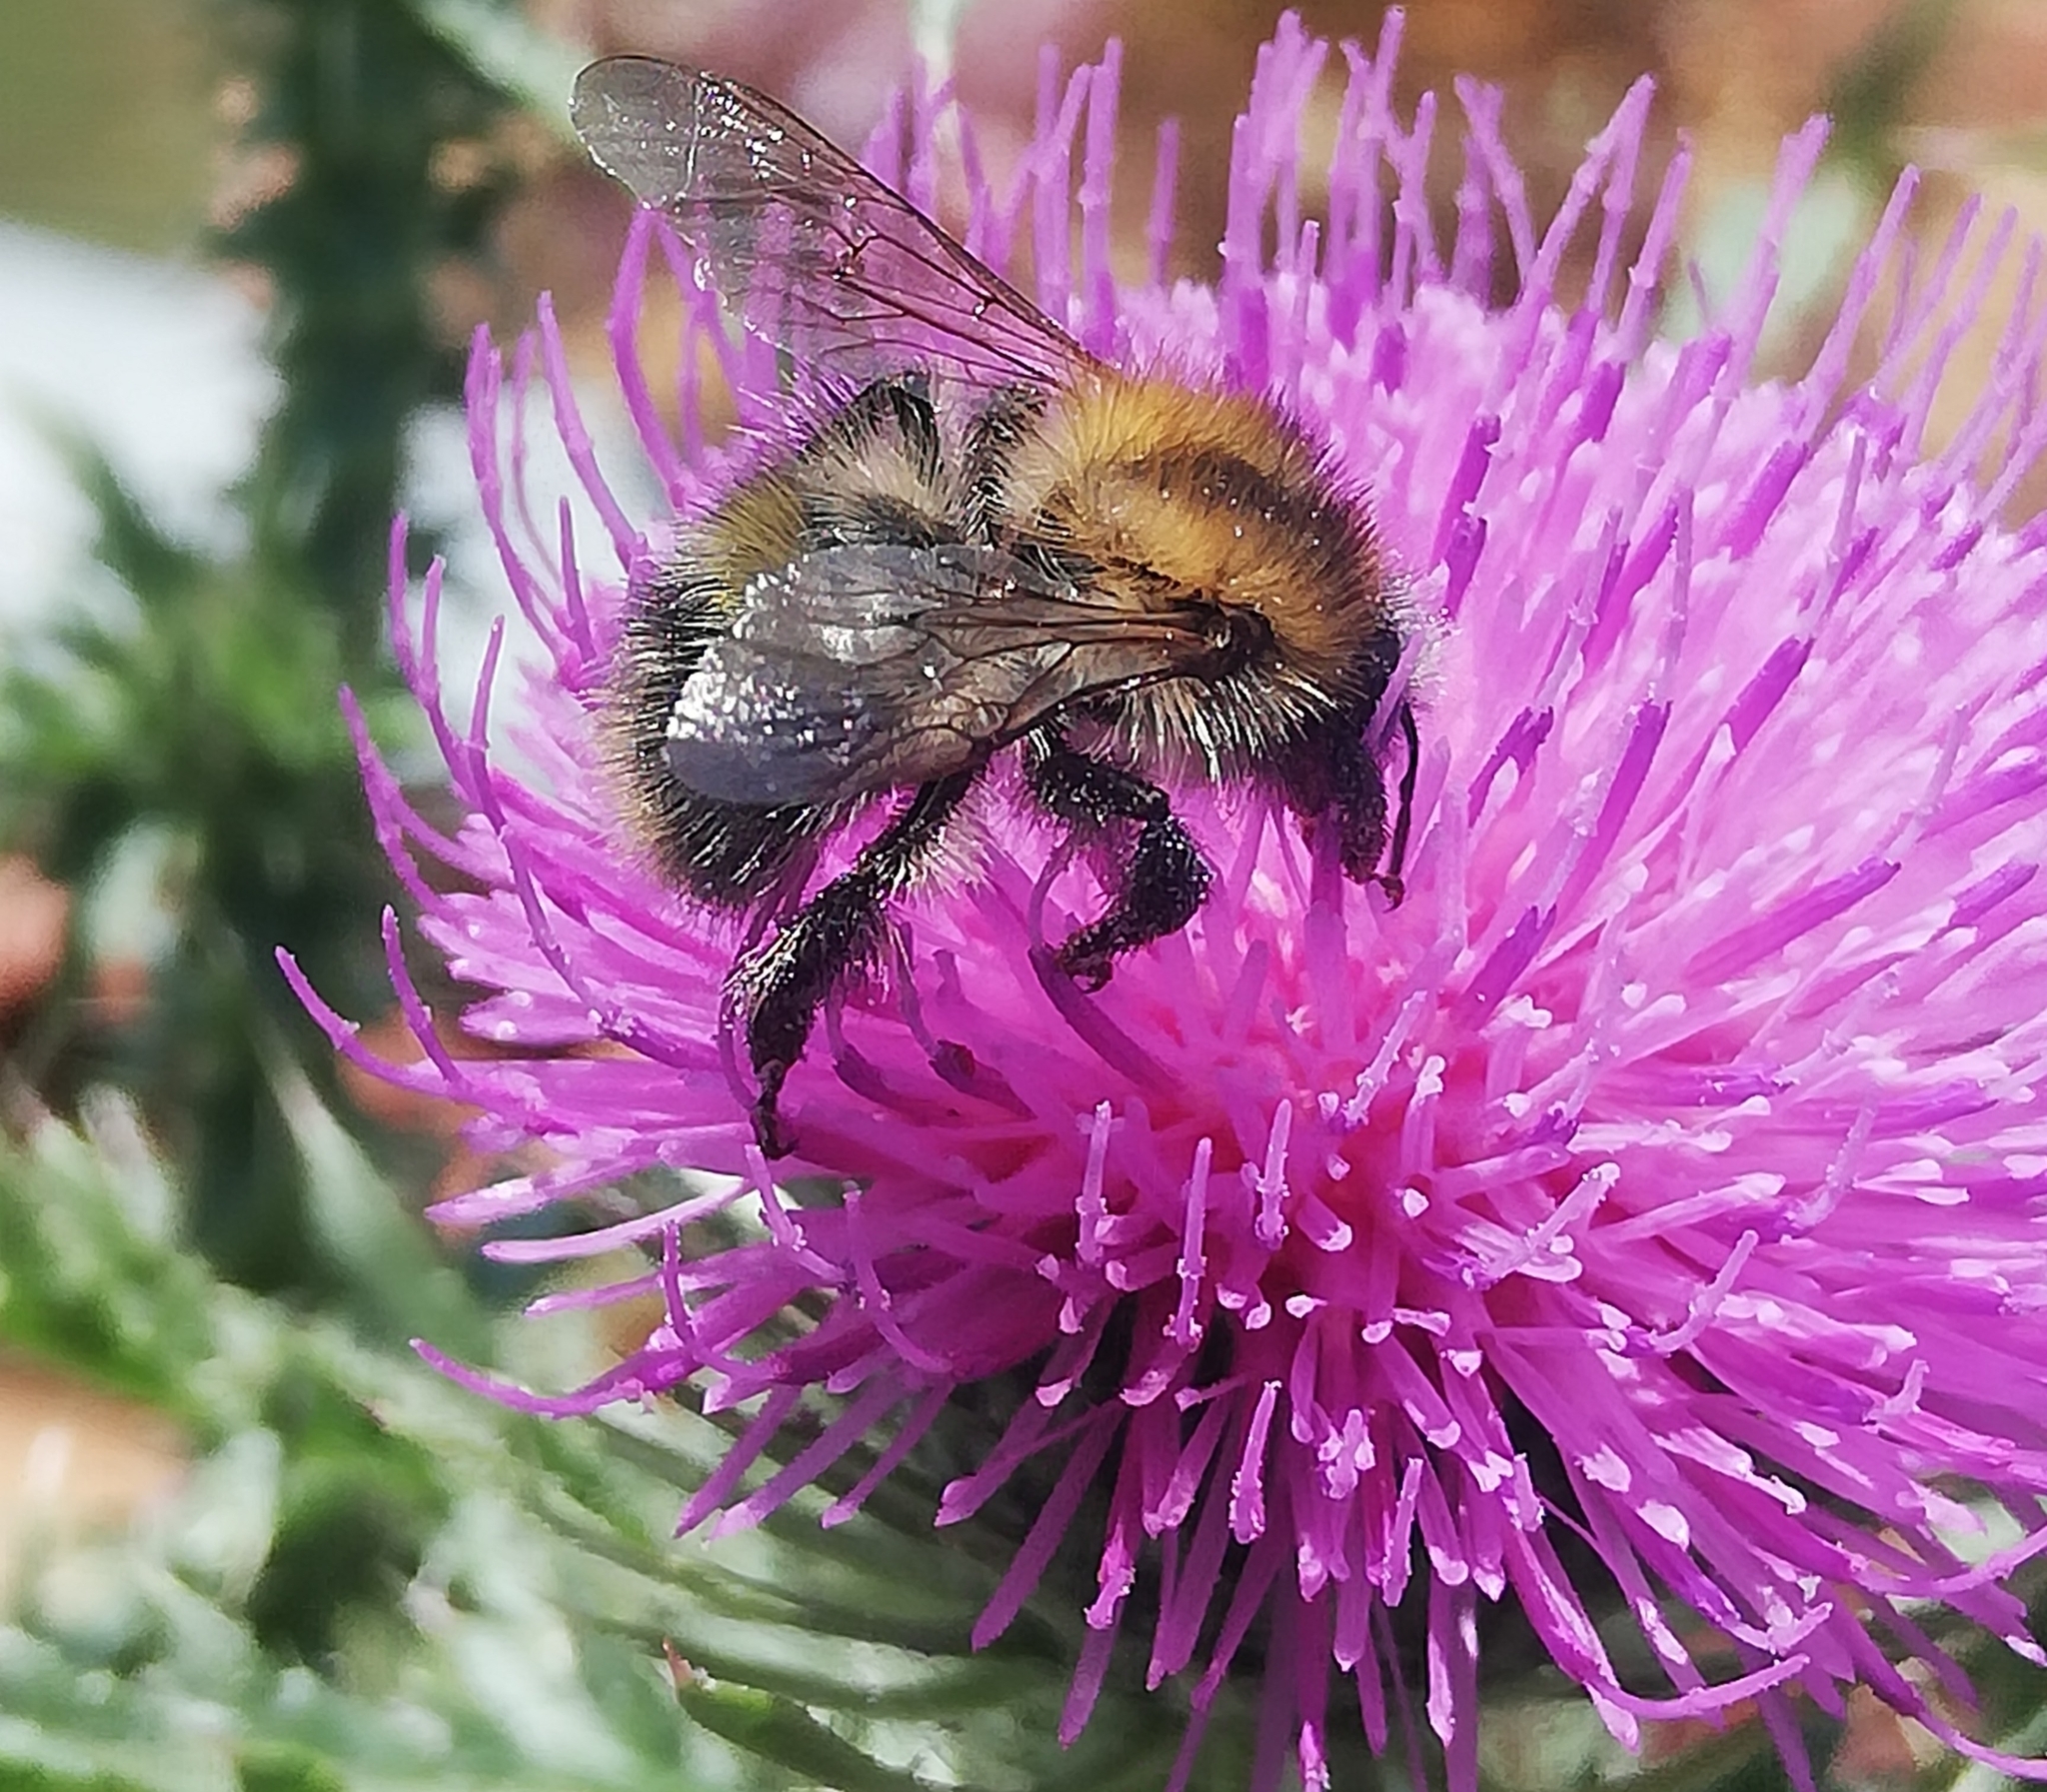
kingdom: Animalia
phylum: Arthropoda
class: Insecta
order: Hymenoptera
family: Apidae
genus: Bombus
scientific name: Bombus pascuorum
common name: Common carder bee
